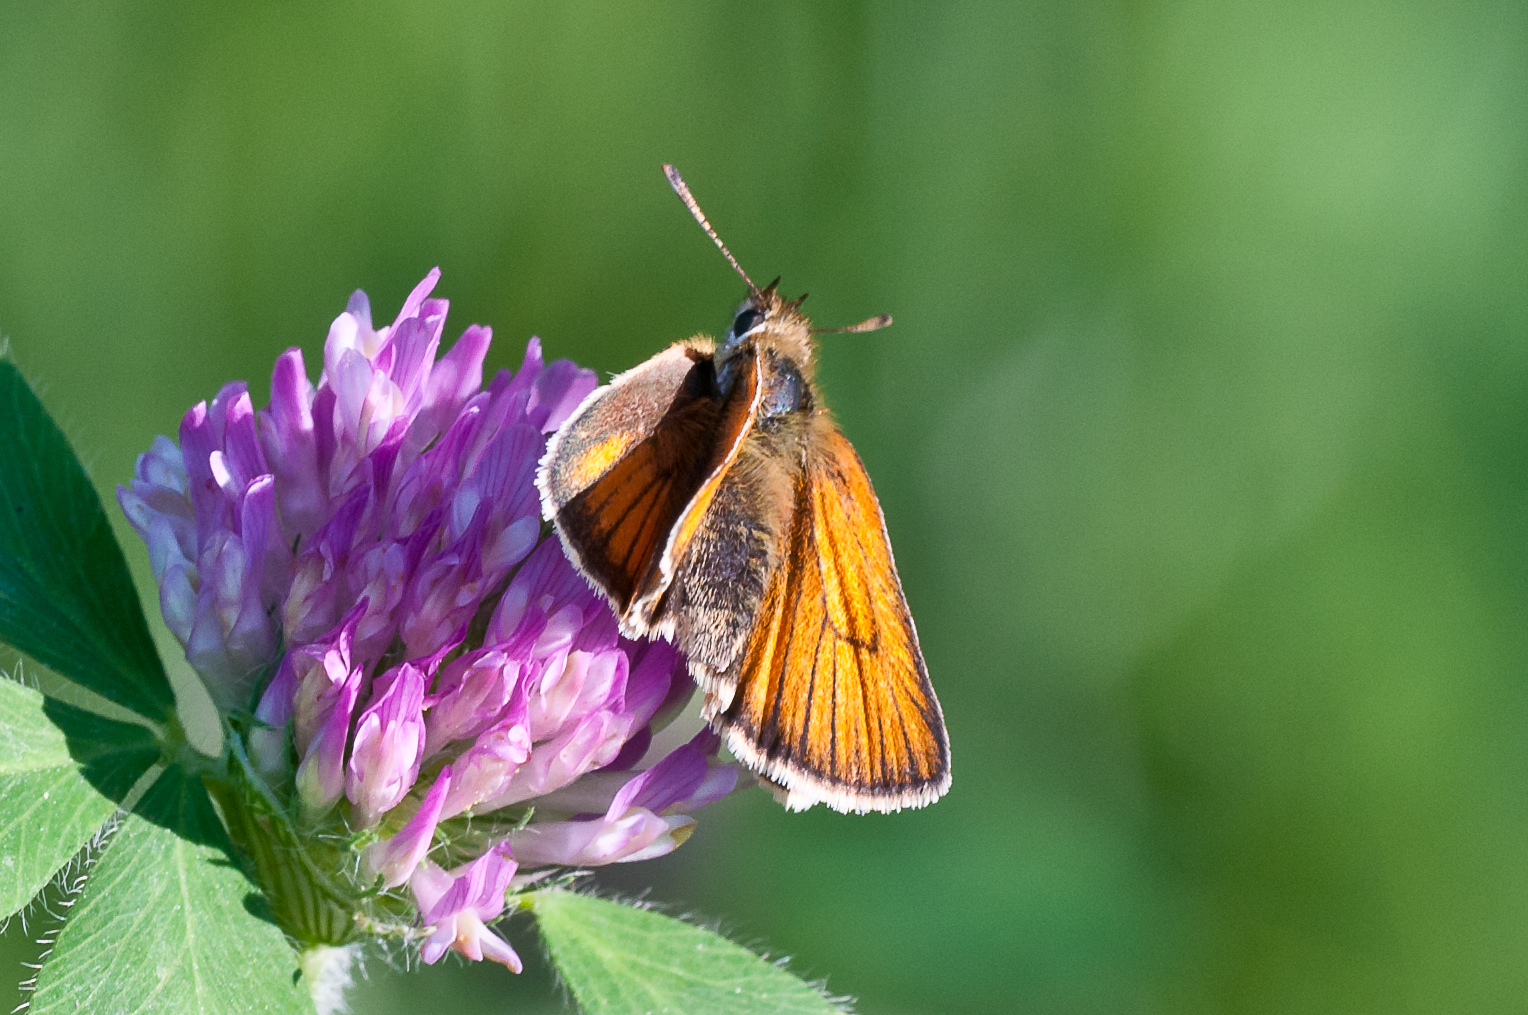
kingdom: Animalia
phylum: Arthropoda
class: Insecta
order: Lepidoptera
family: Hesperiidae
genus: Thymelicus
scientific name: Thymelicus lineola
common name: Essex skipper
